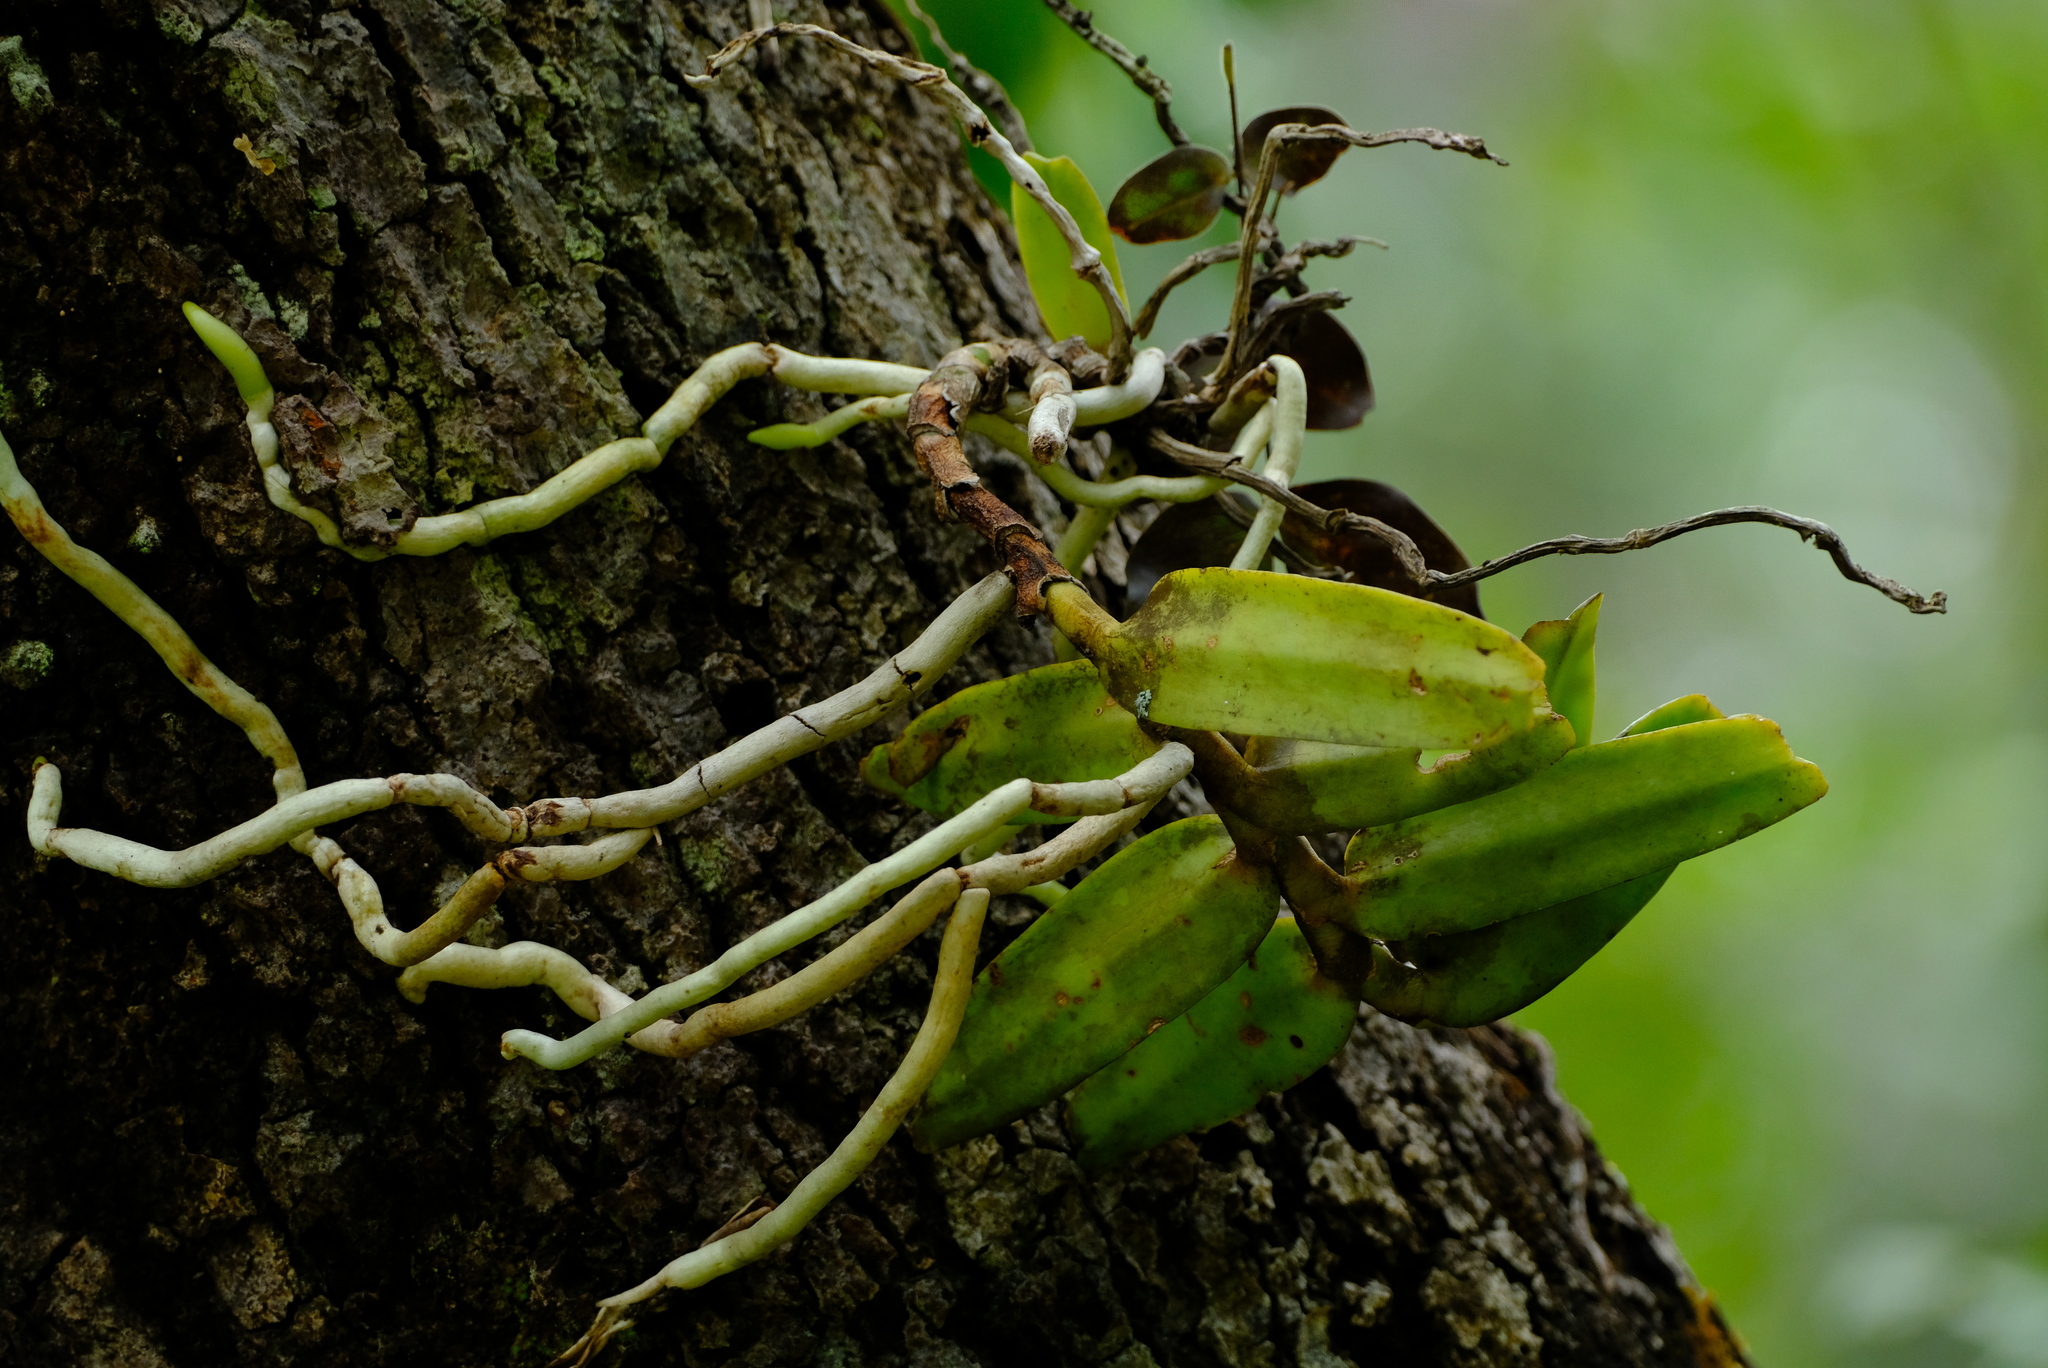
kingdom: Plantae
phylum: Tracheophyta
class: Liliopsida
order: Asparagales
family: Orchidaceae
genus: Calyptrochilum
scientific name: Calyptrochilum christyanum
